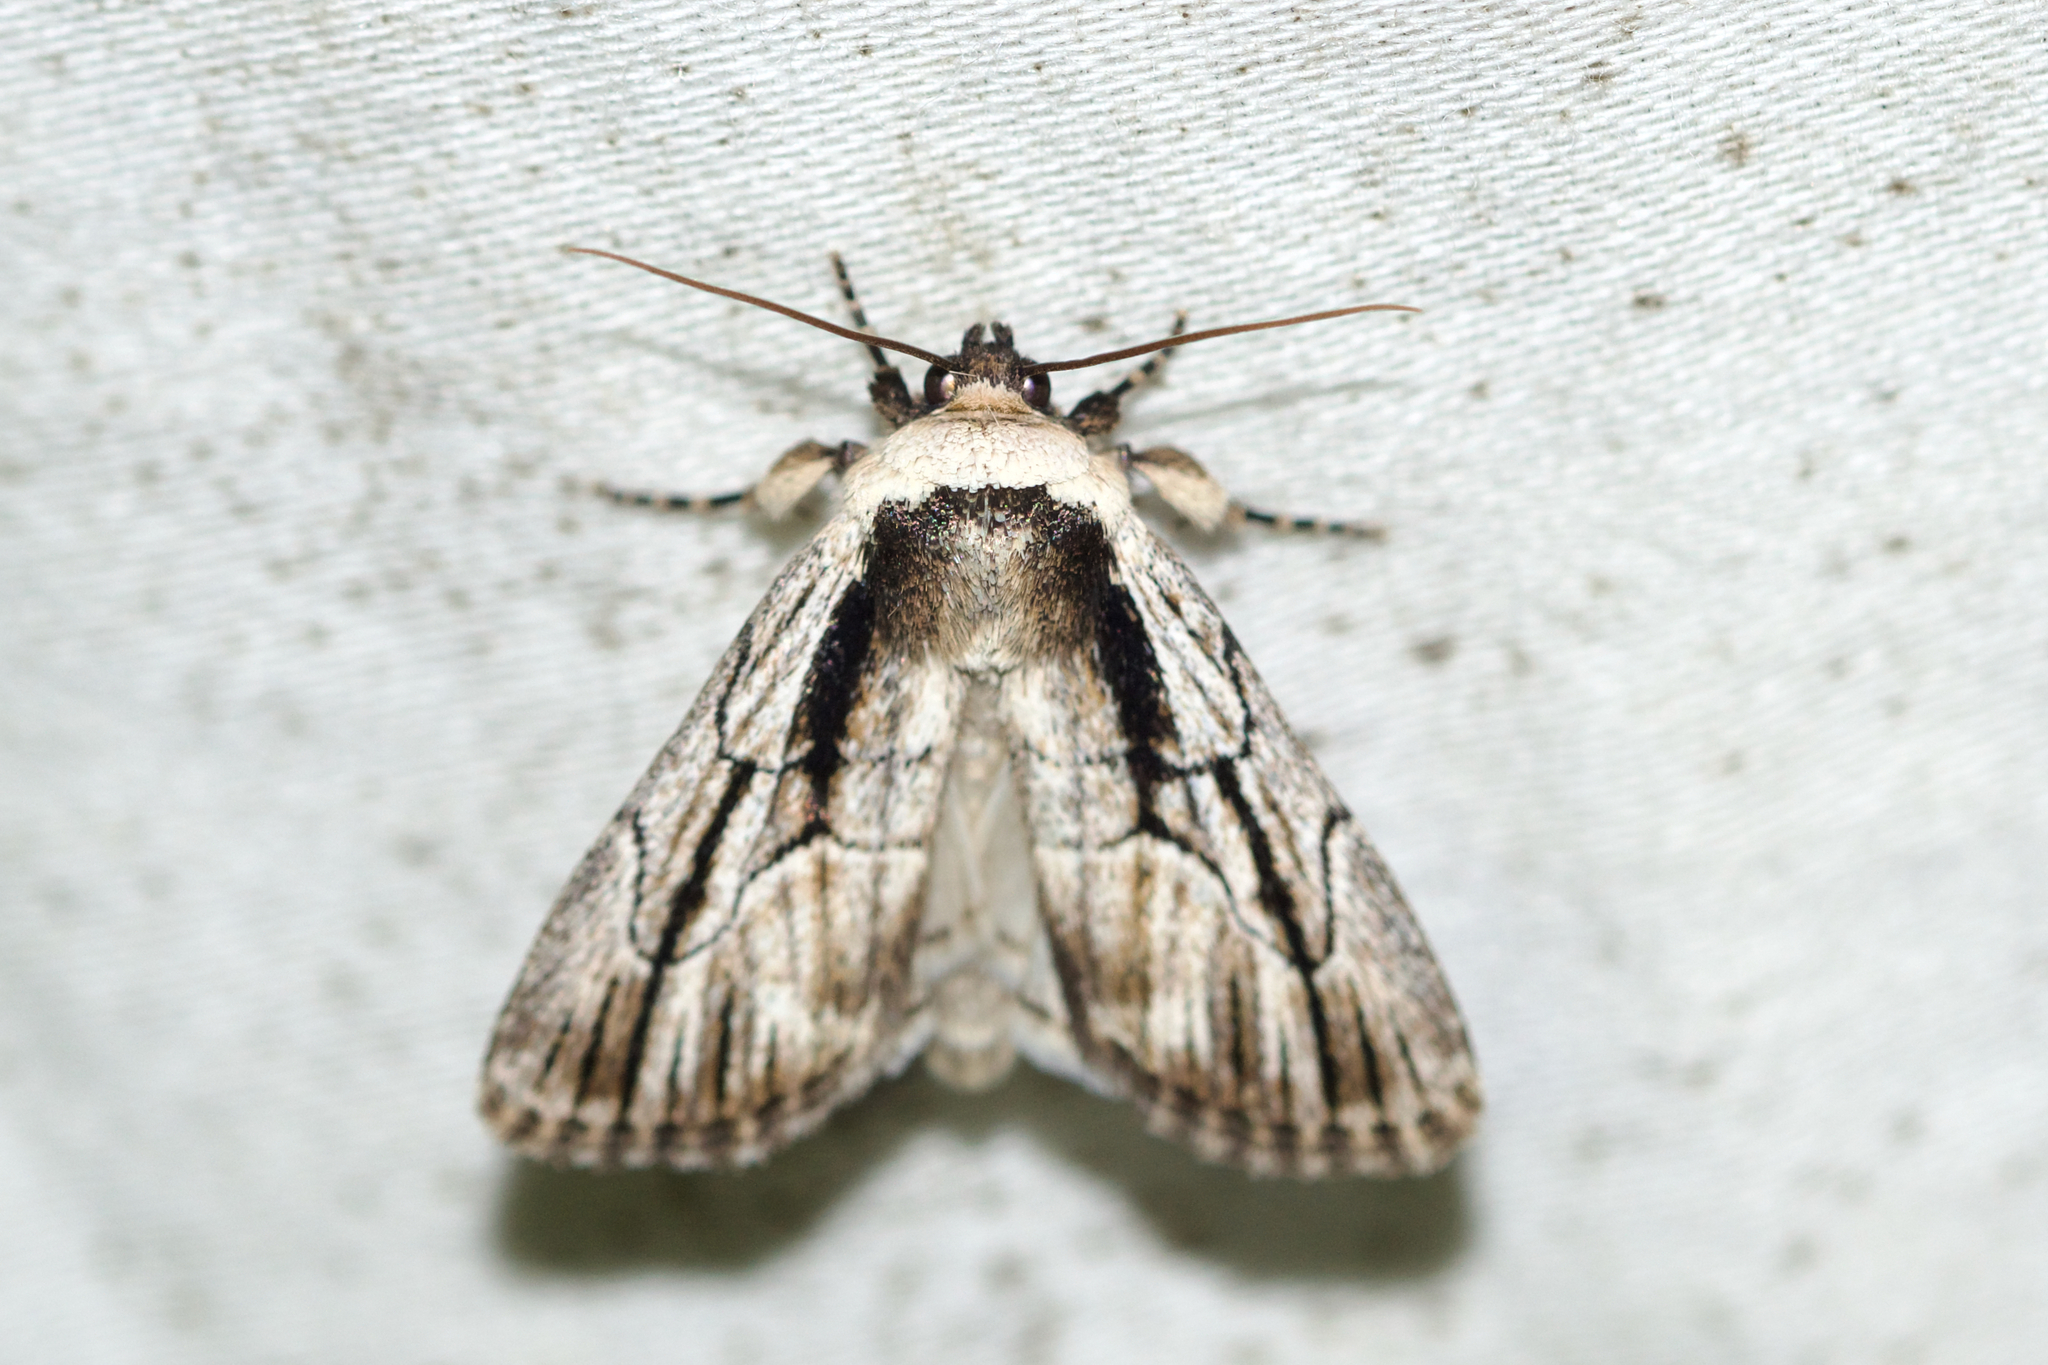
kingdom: Animalia
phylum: Arthropoda
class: Insecta
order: Lepidoptera
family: Noctuidae
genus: Sympistis
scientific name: Sympistis badistriga
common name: Brown-lined sallow moth
